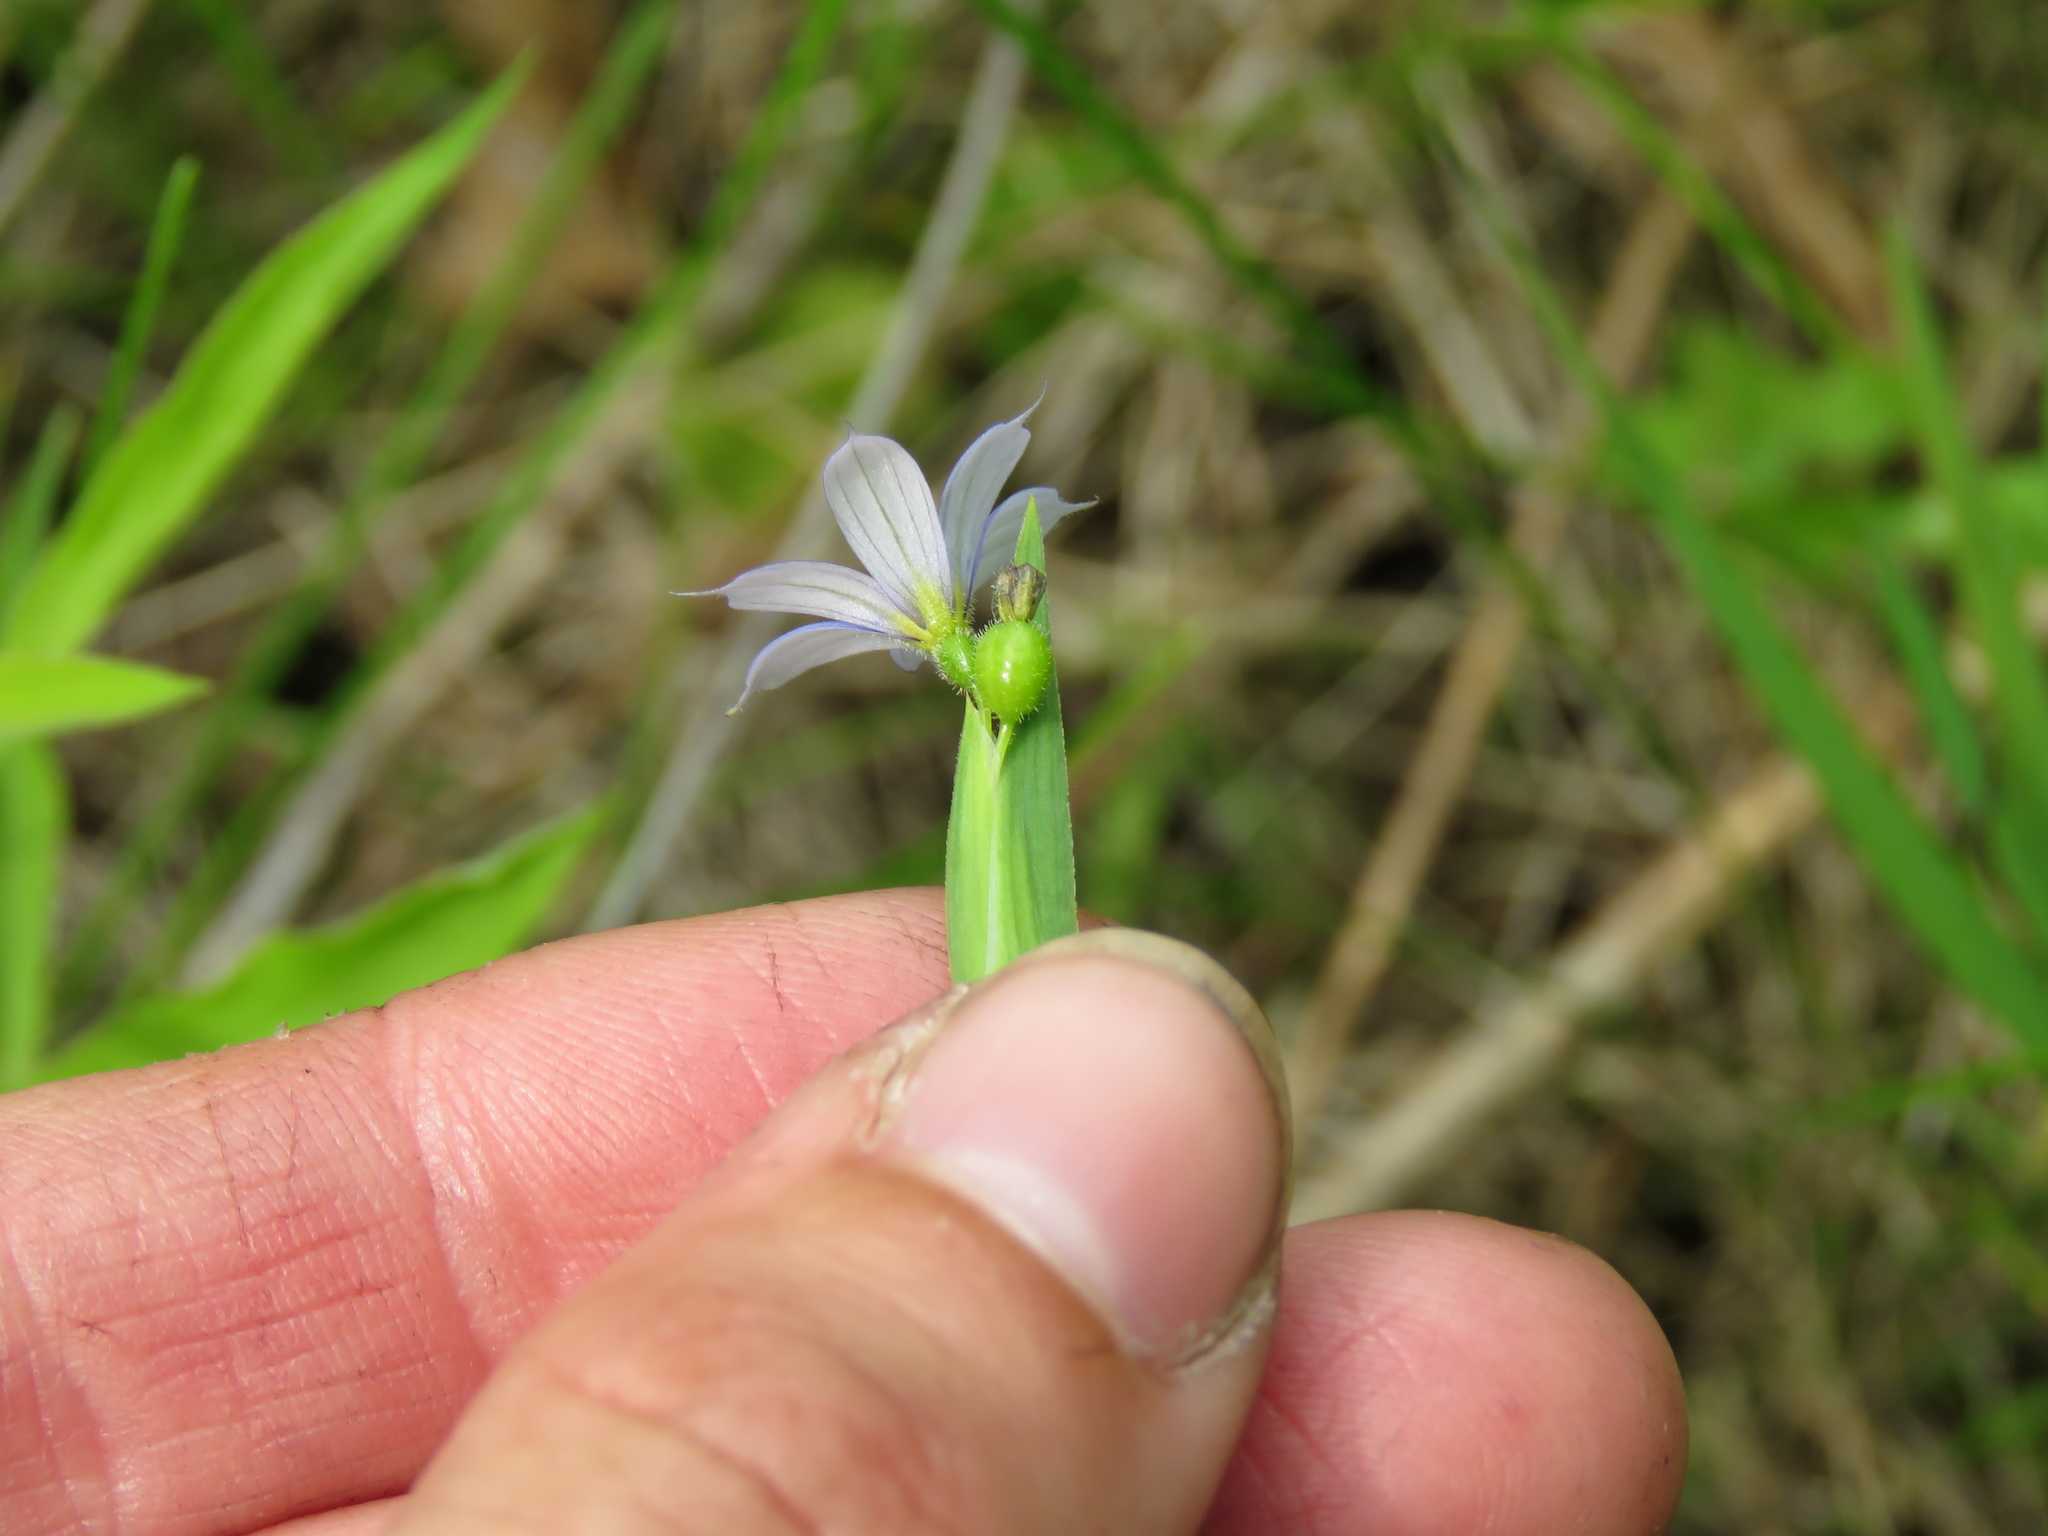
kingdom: Plantae
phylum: Tracheophyta
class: Liliopsida
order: Asparagales
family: Iridaceae
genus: Sisyrinchium
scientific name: Sisyrinchium angustifolium
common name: Narrow-leaf blue-eyed-grass
